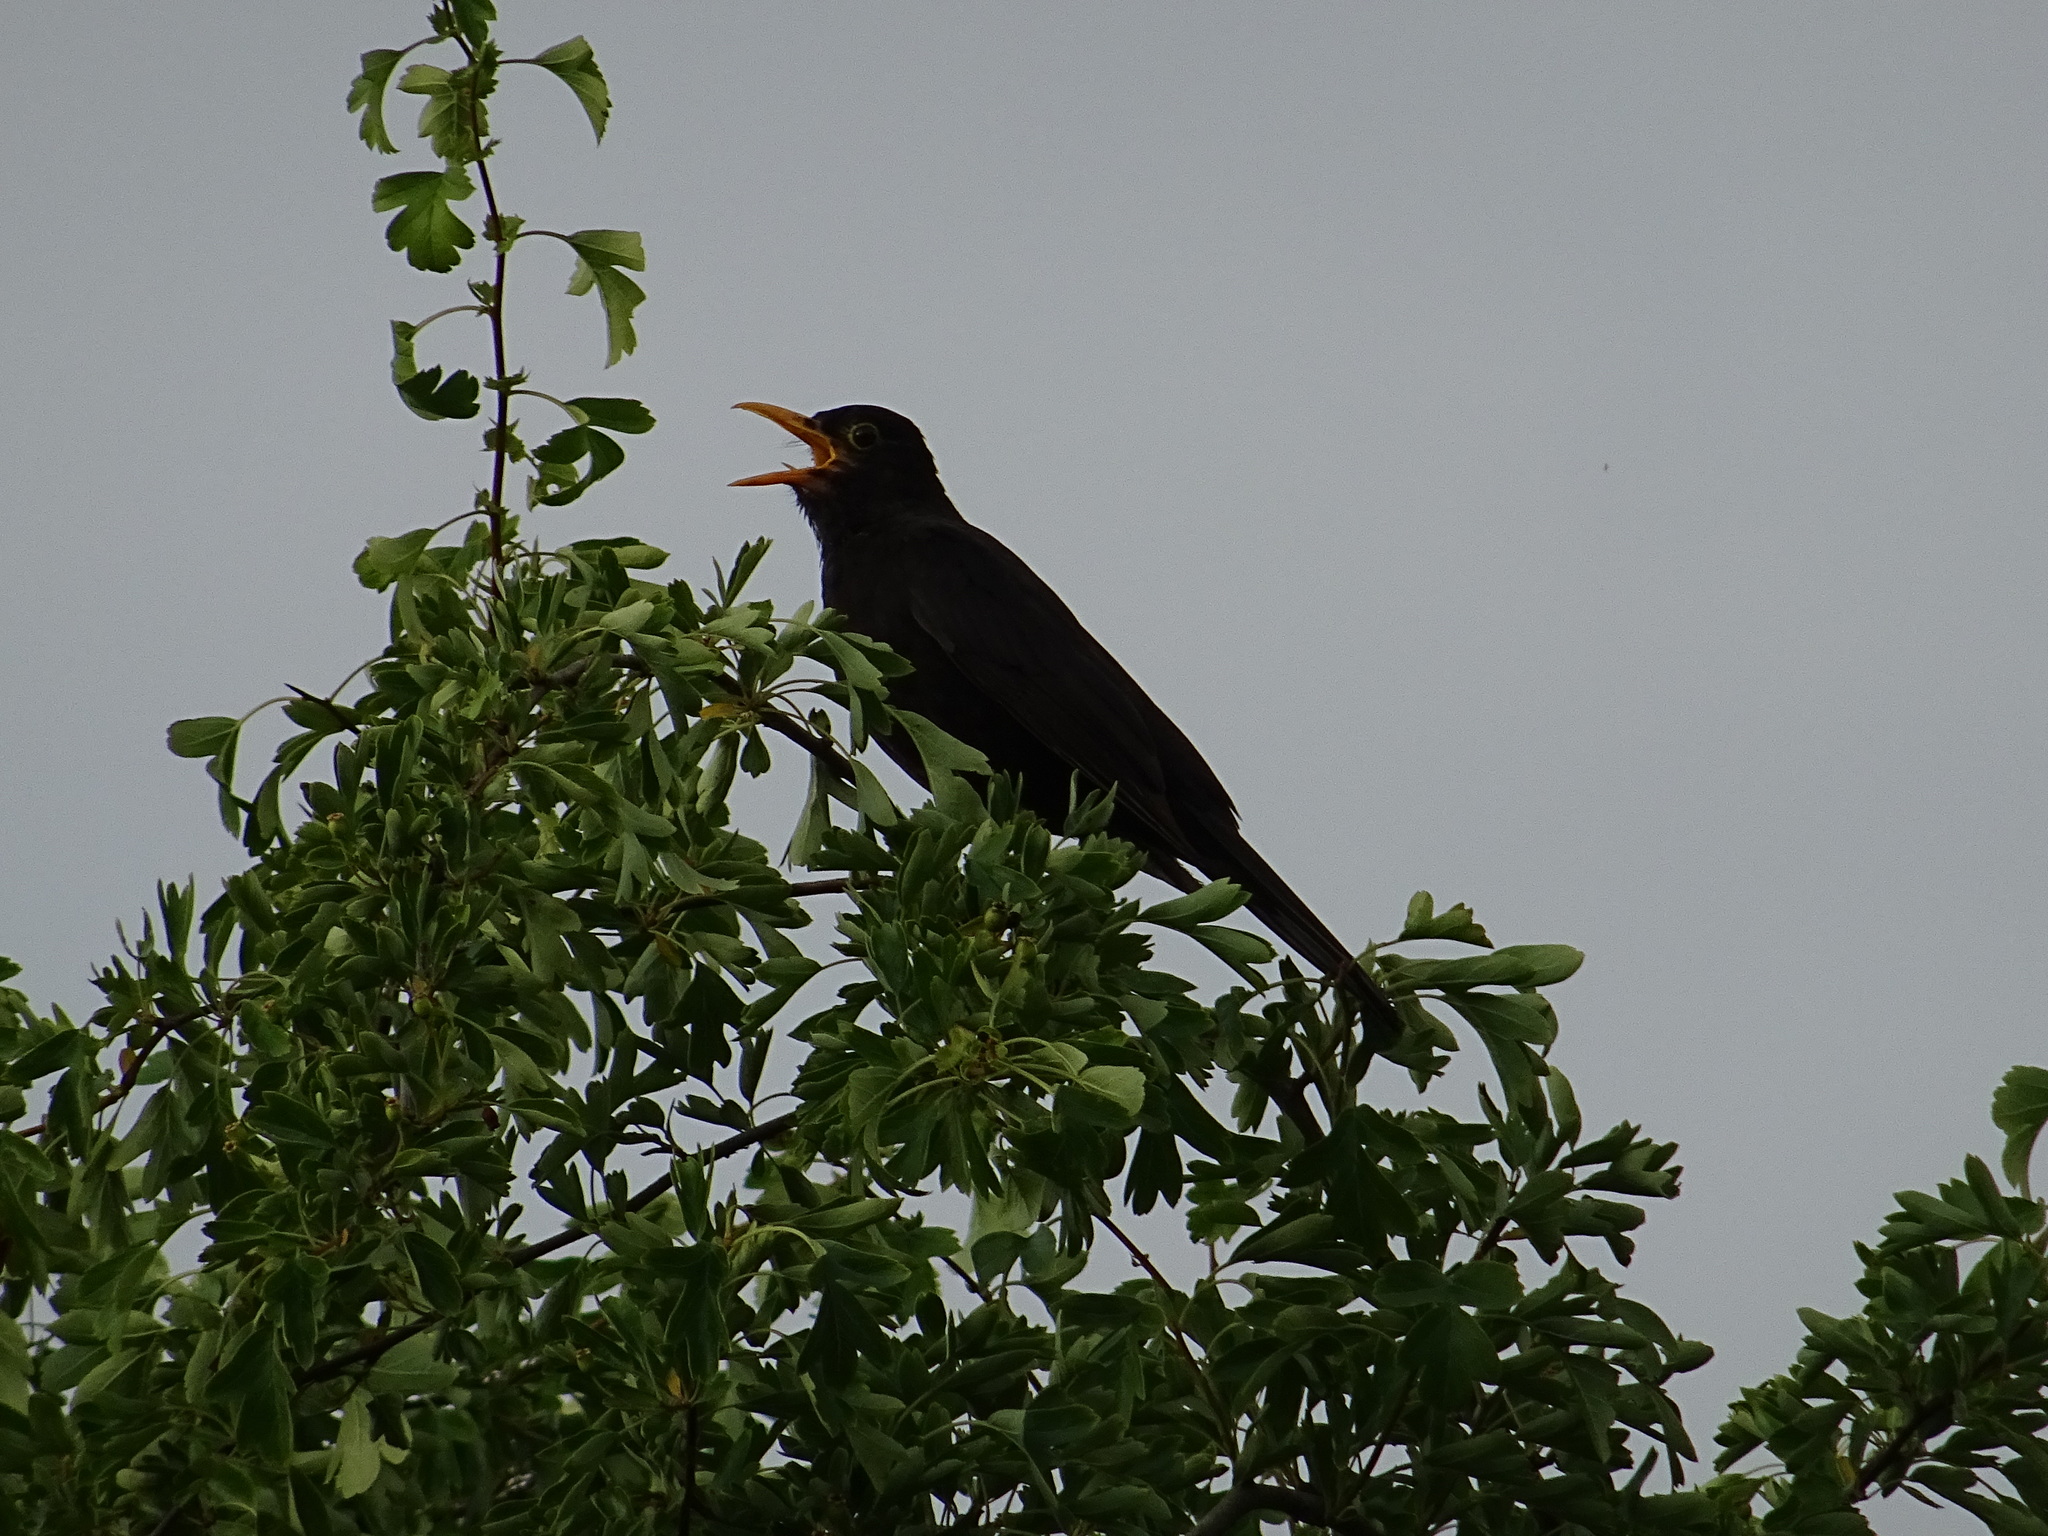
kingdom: Animalia
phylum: Chordata
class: Aves
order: Passeriformes
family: Turdidae
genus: Turdus
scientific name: Turdus merula
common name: Common blackbird
